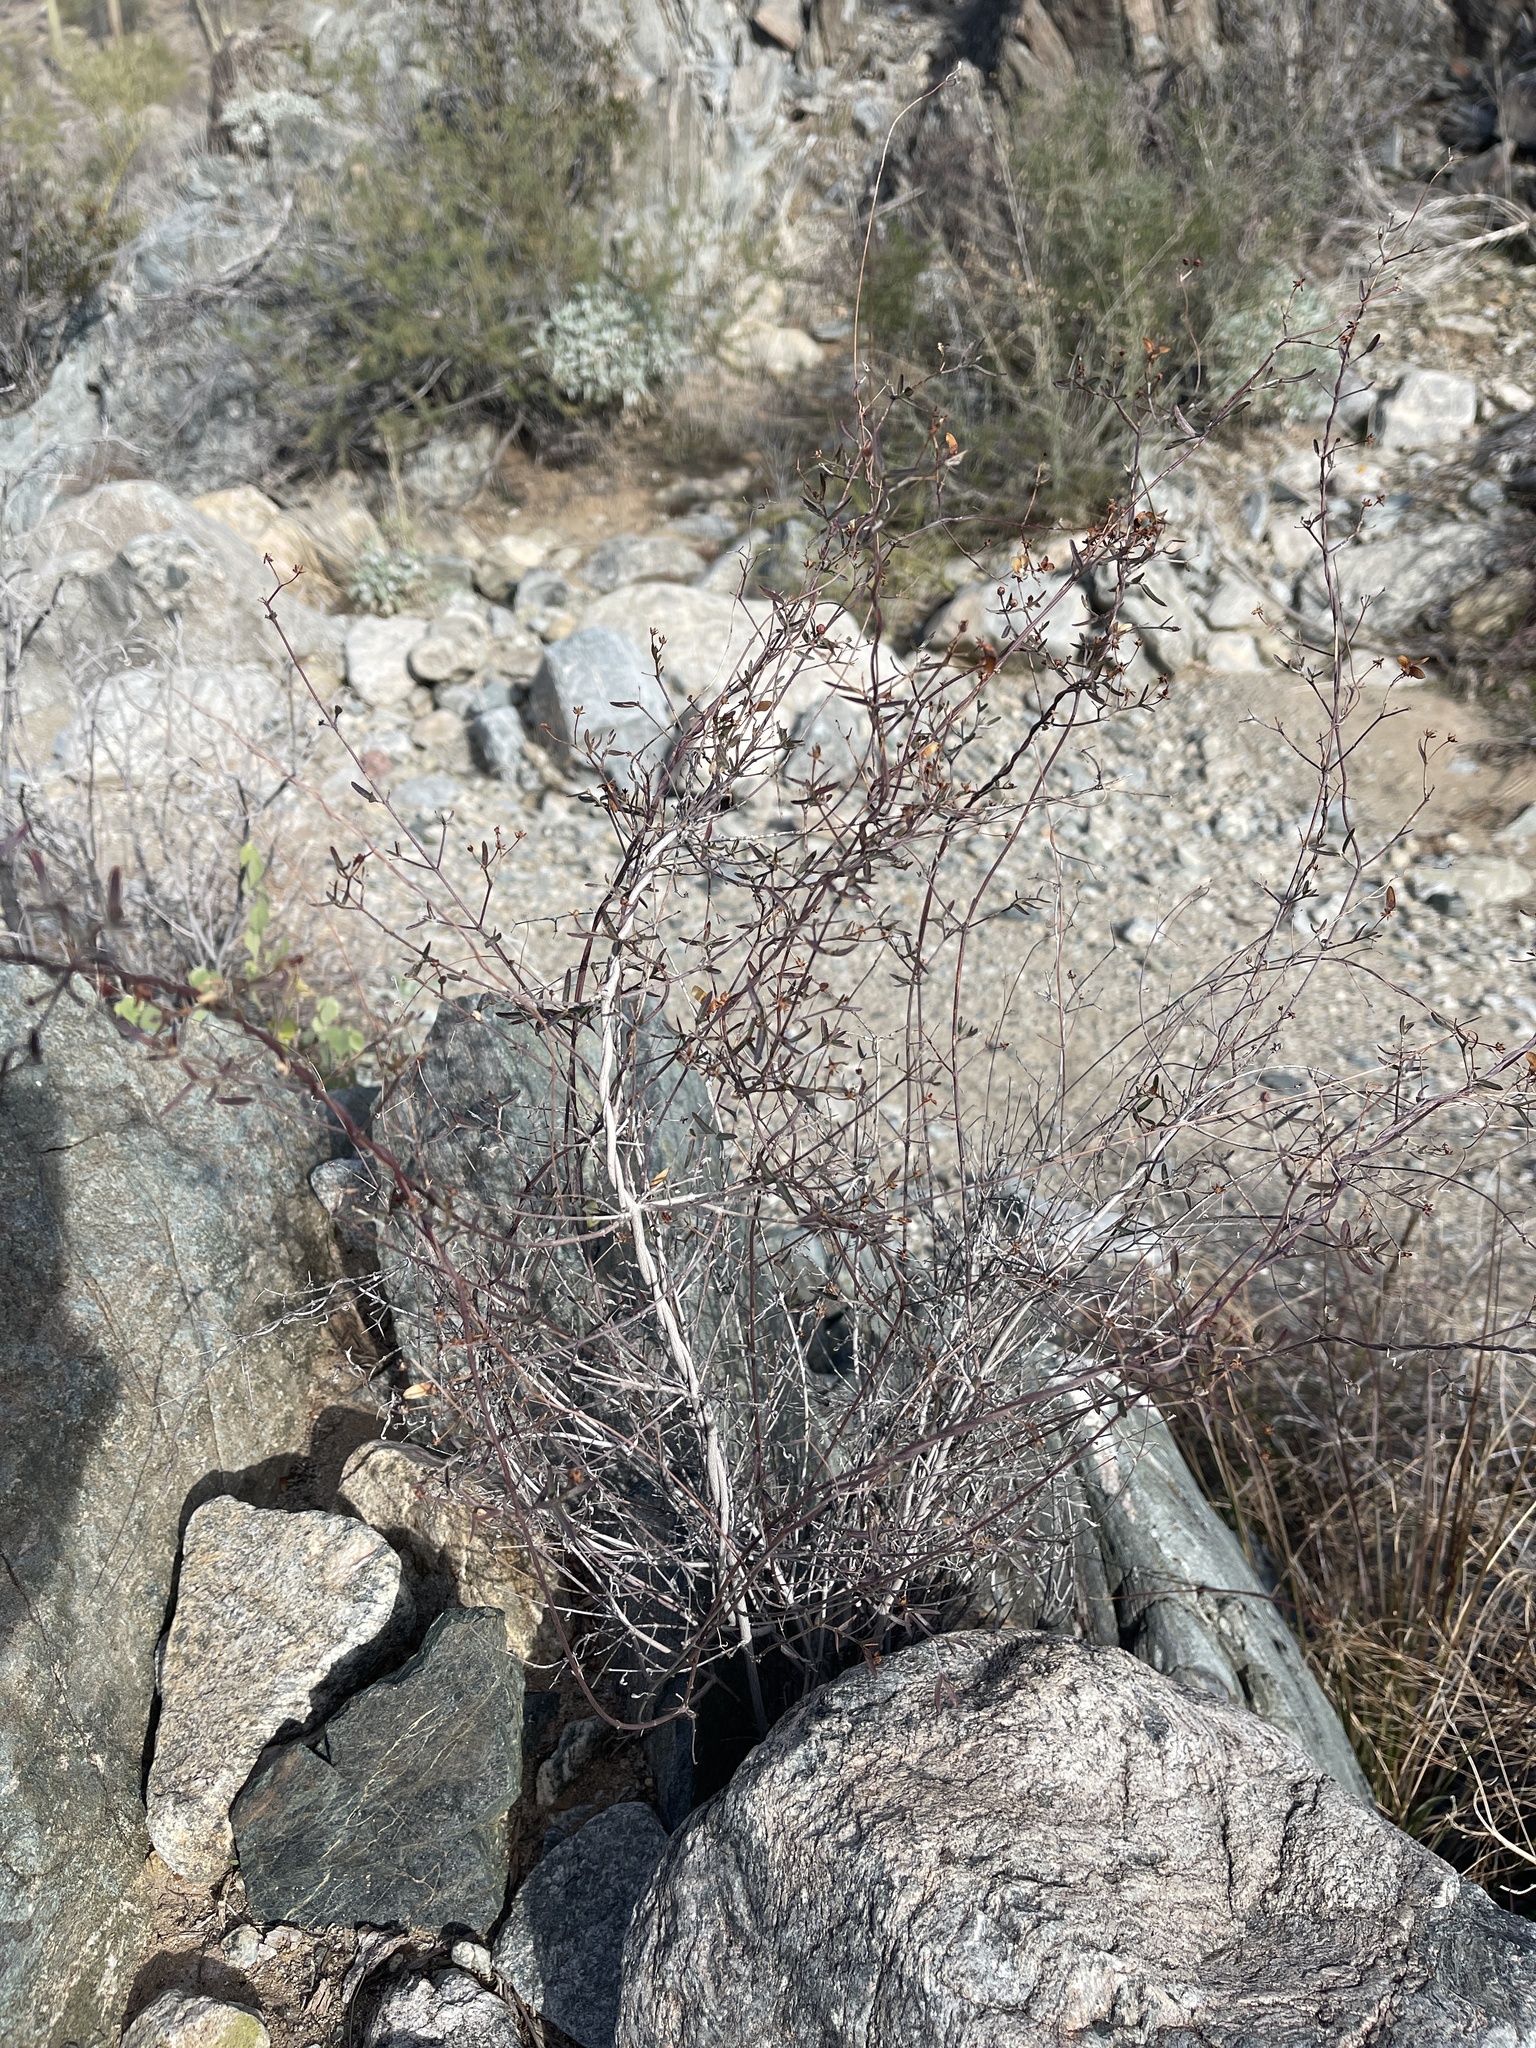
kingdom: Plantae
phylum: Tracheophyta
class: Magnoliopsida
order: Malpighiales
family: Malpighiaceae
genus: Cottsia
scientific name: Cottsia gracilis
